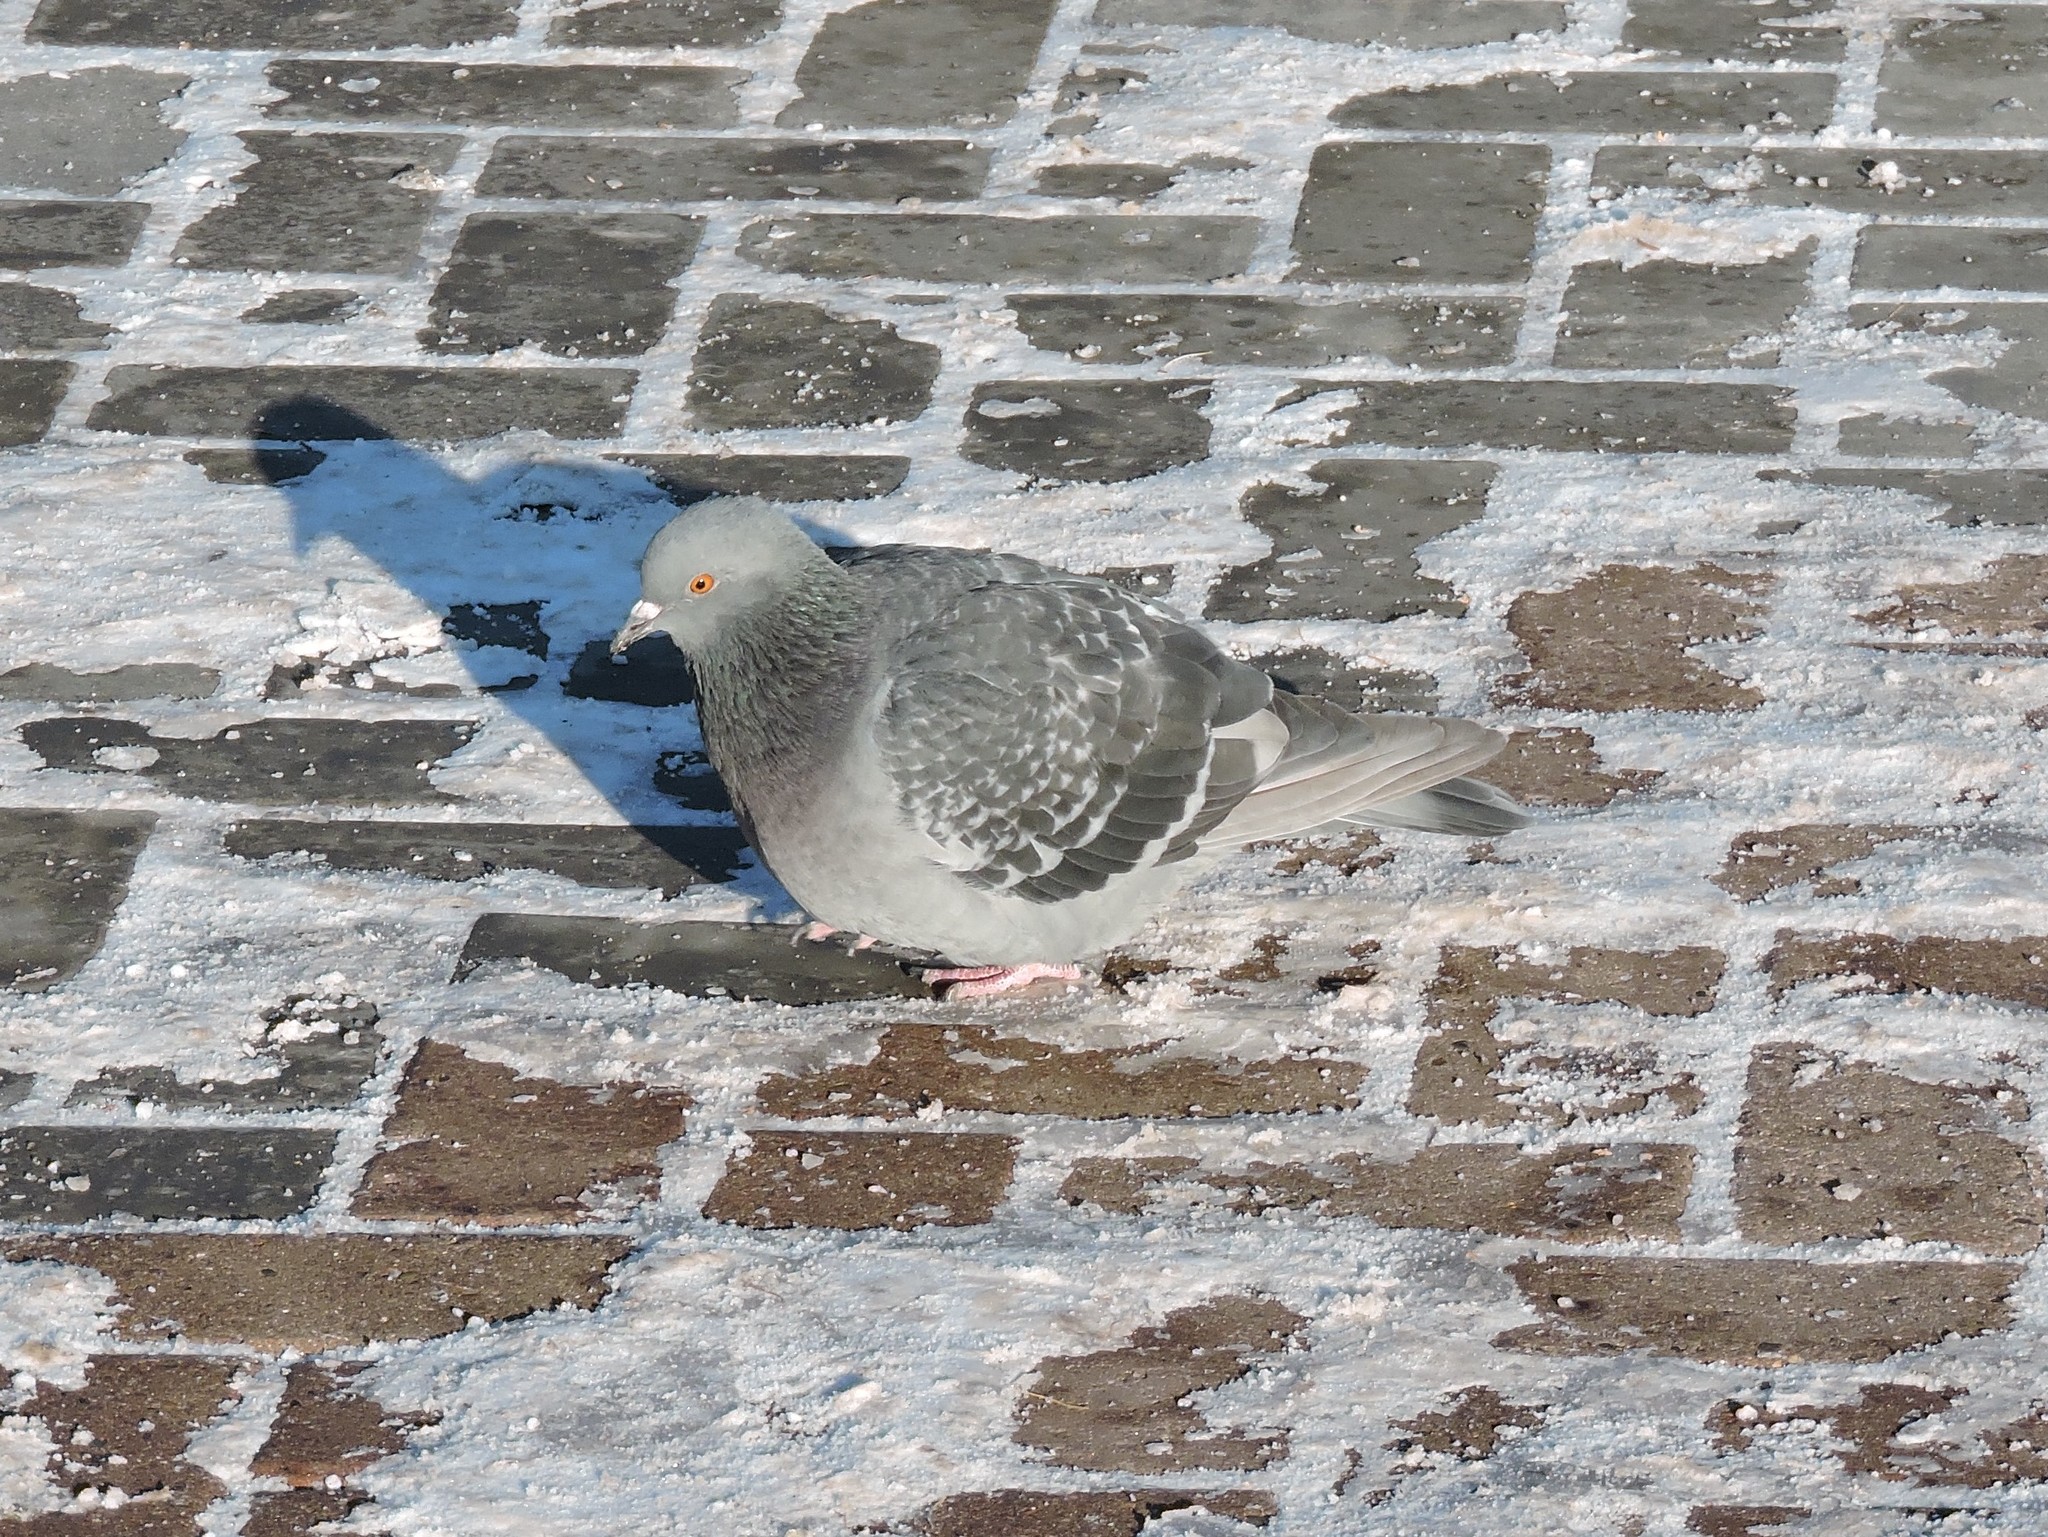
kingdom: Animalia
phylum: Chordata
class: Aves
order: Columbiformes
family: Columbidae
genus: Columba
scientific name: Columba livia
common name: Rock pigeon
